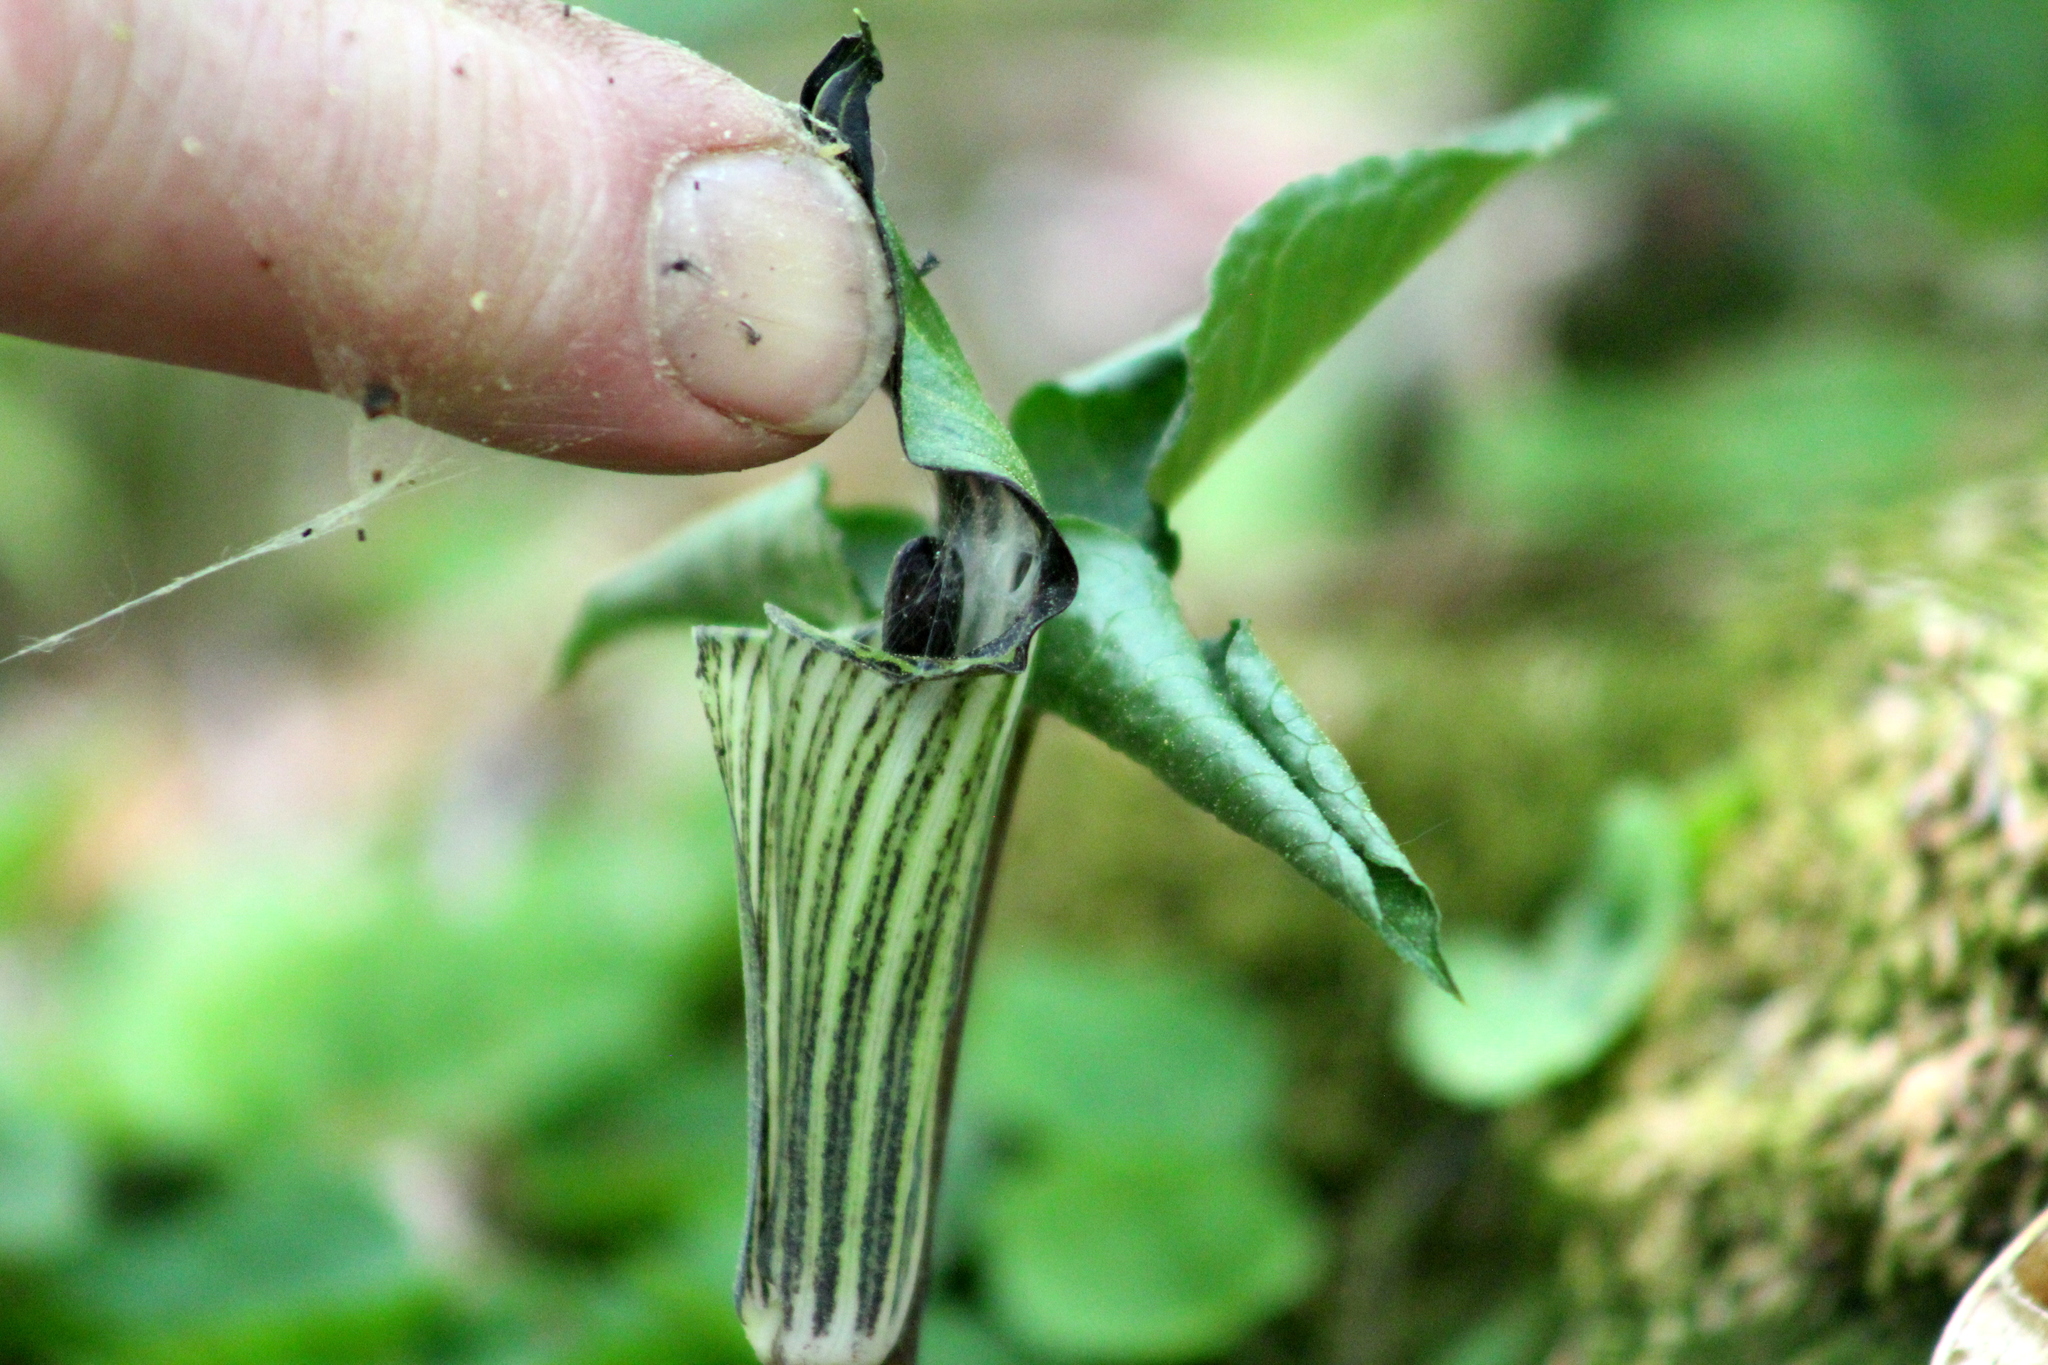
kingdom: Plantae
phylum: Tracheophyta
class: Liliopsida
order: Alismatales
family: Araceae
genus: Arisaema
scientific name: Arisaema triphyllum
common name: Jack-in-the-pulpit
